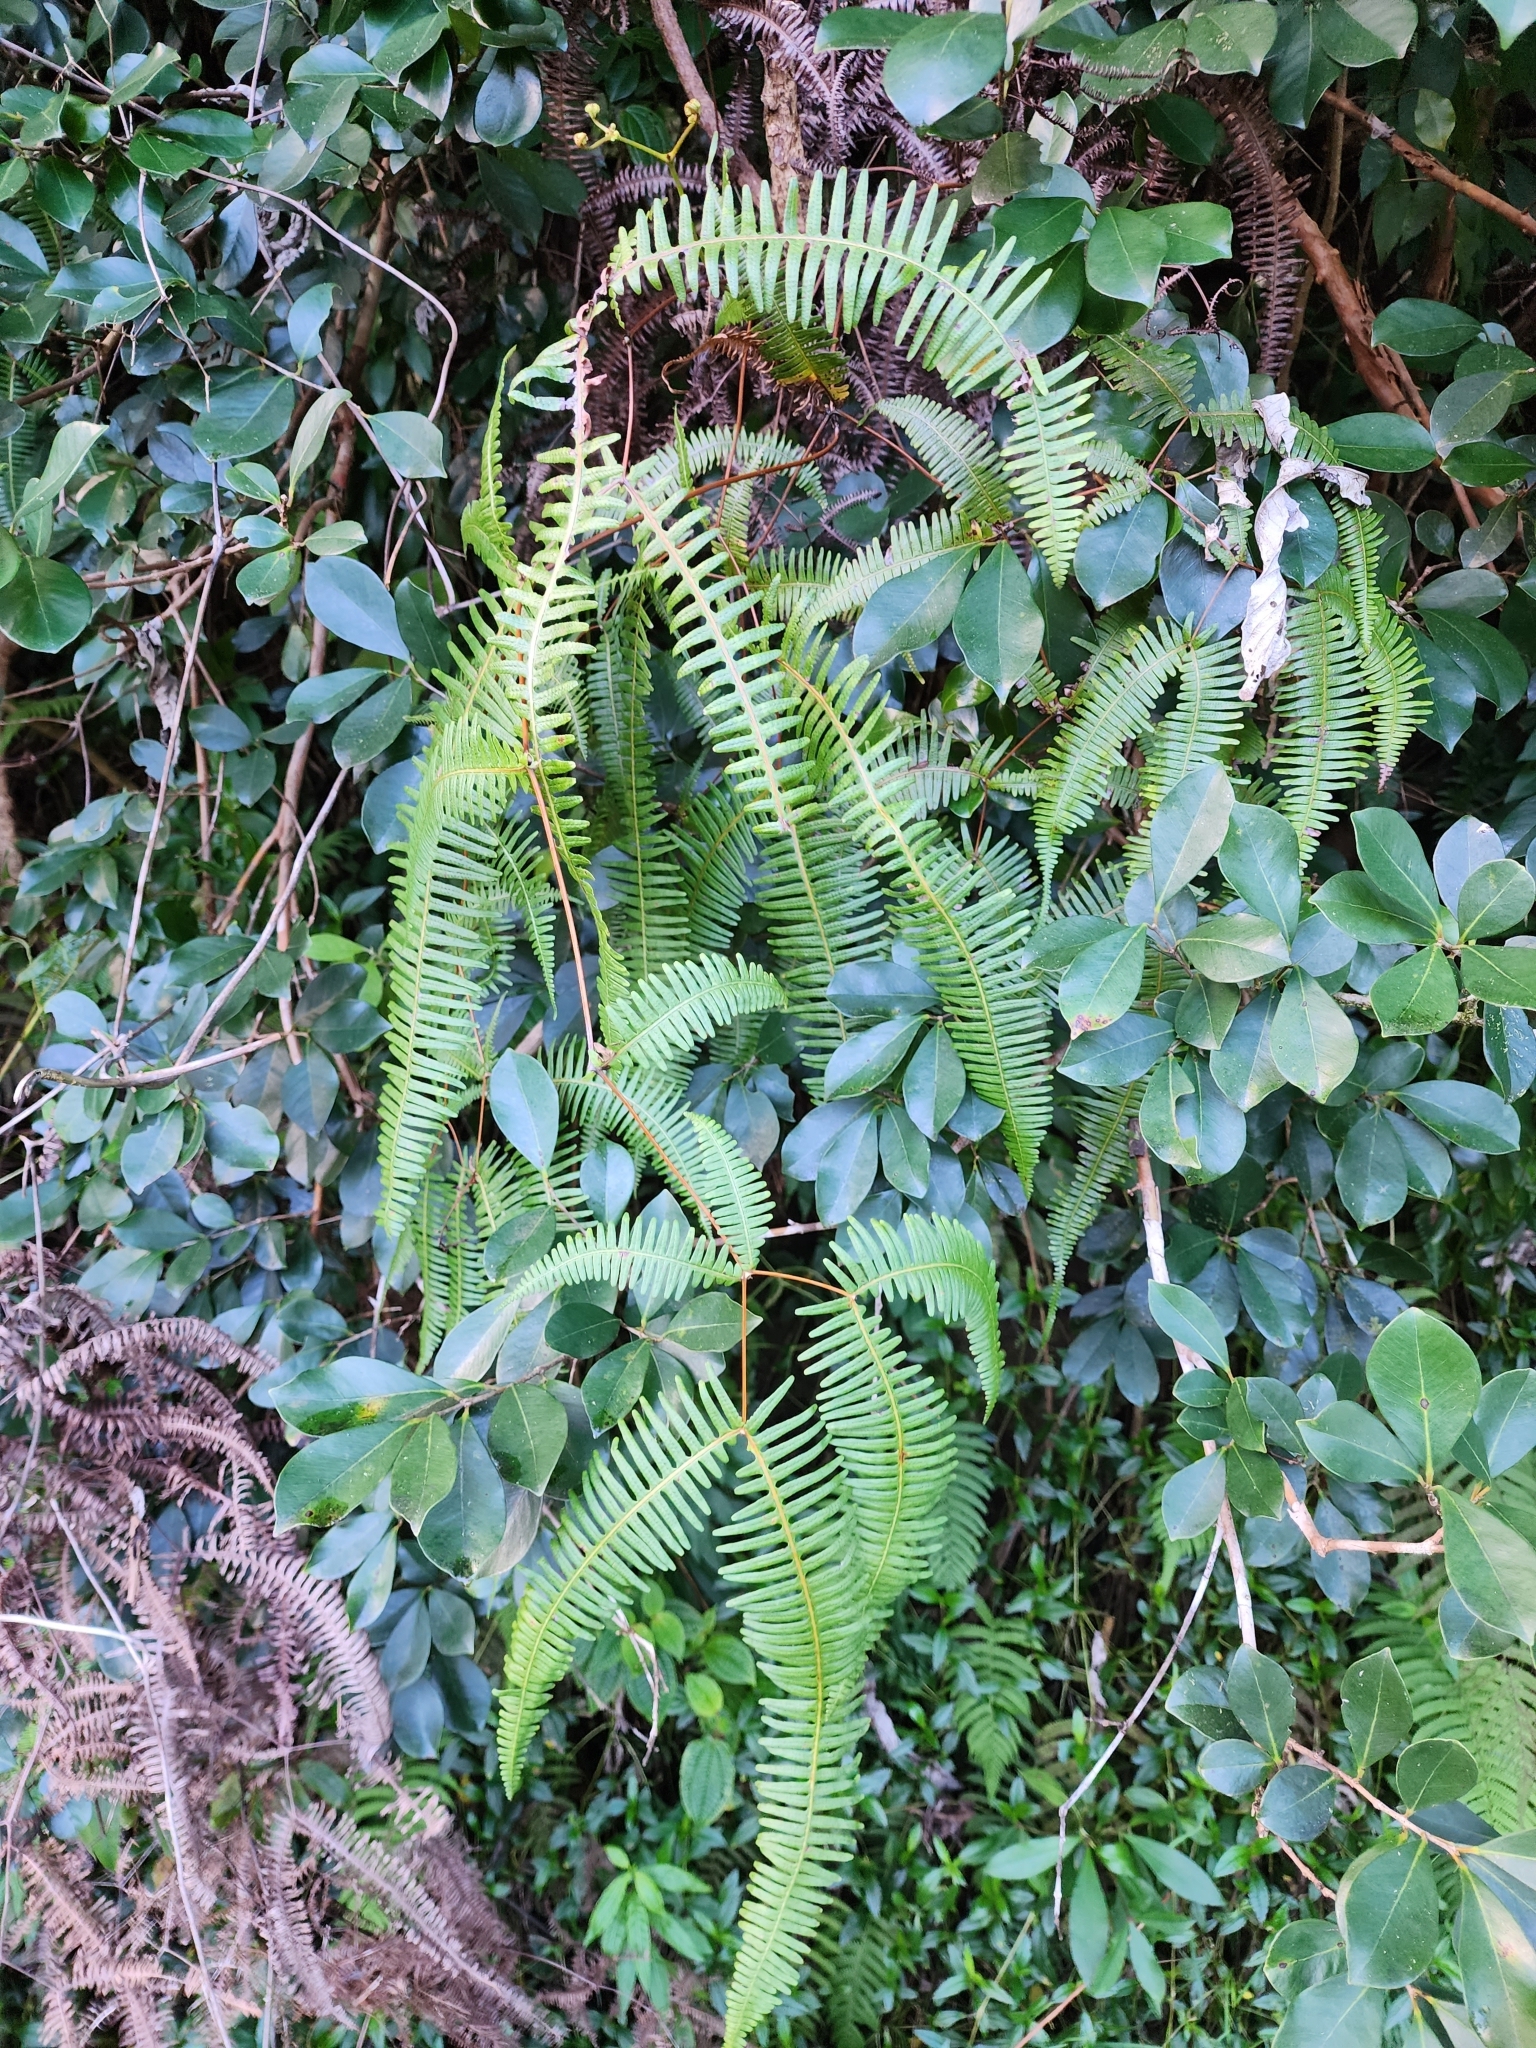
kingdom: Plantae
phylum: Tracheophyta
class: Polypodiopsida
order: Gleicheniales
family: Gleicheniaceae
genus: Dicranopteris
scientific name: Dicranopteris linearis
